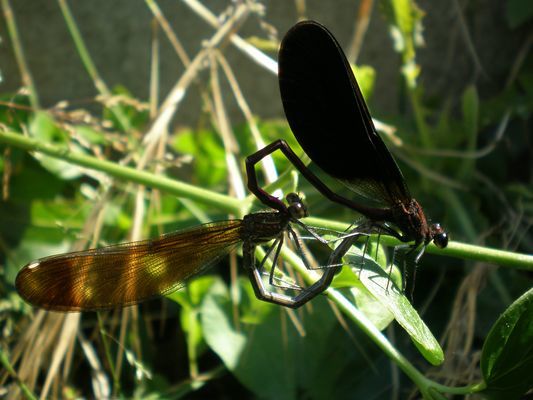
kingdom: Animalia
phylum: Arthropoda
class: Insecta
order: Odonata
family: Calopterygidae
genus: Calopteryx
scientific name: Calopteryx haemorrhoidalis
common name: Copper demoiselle
